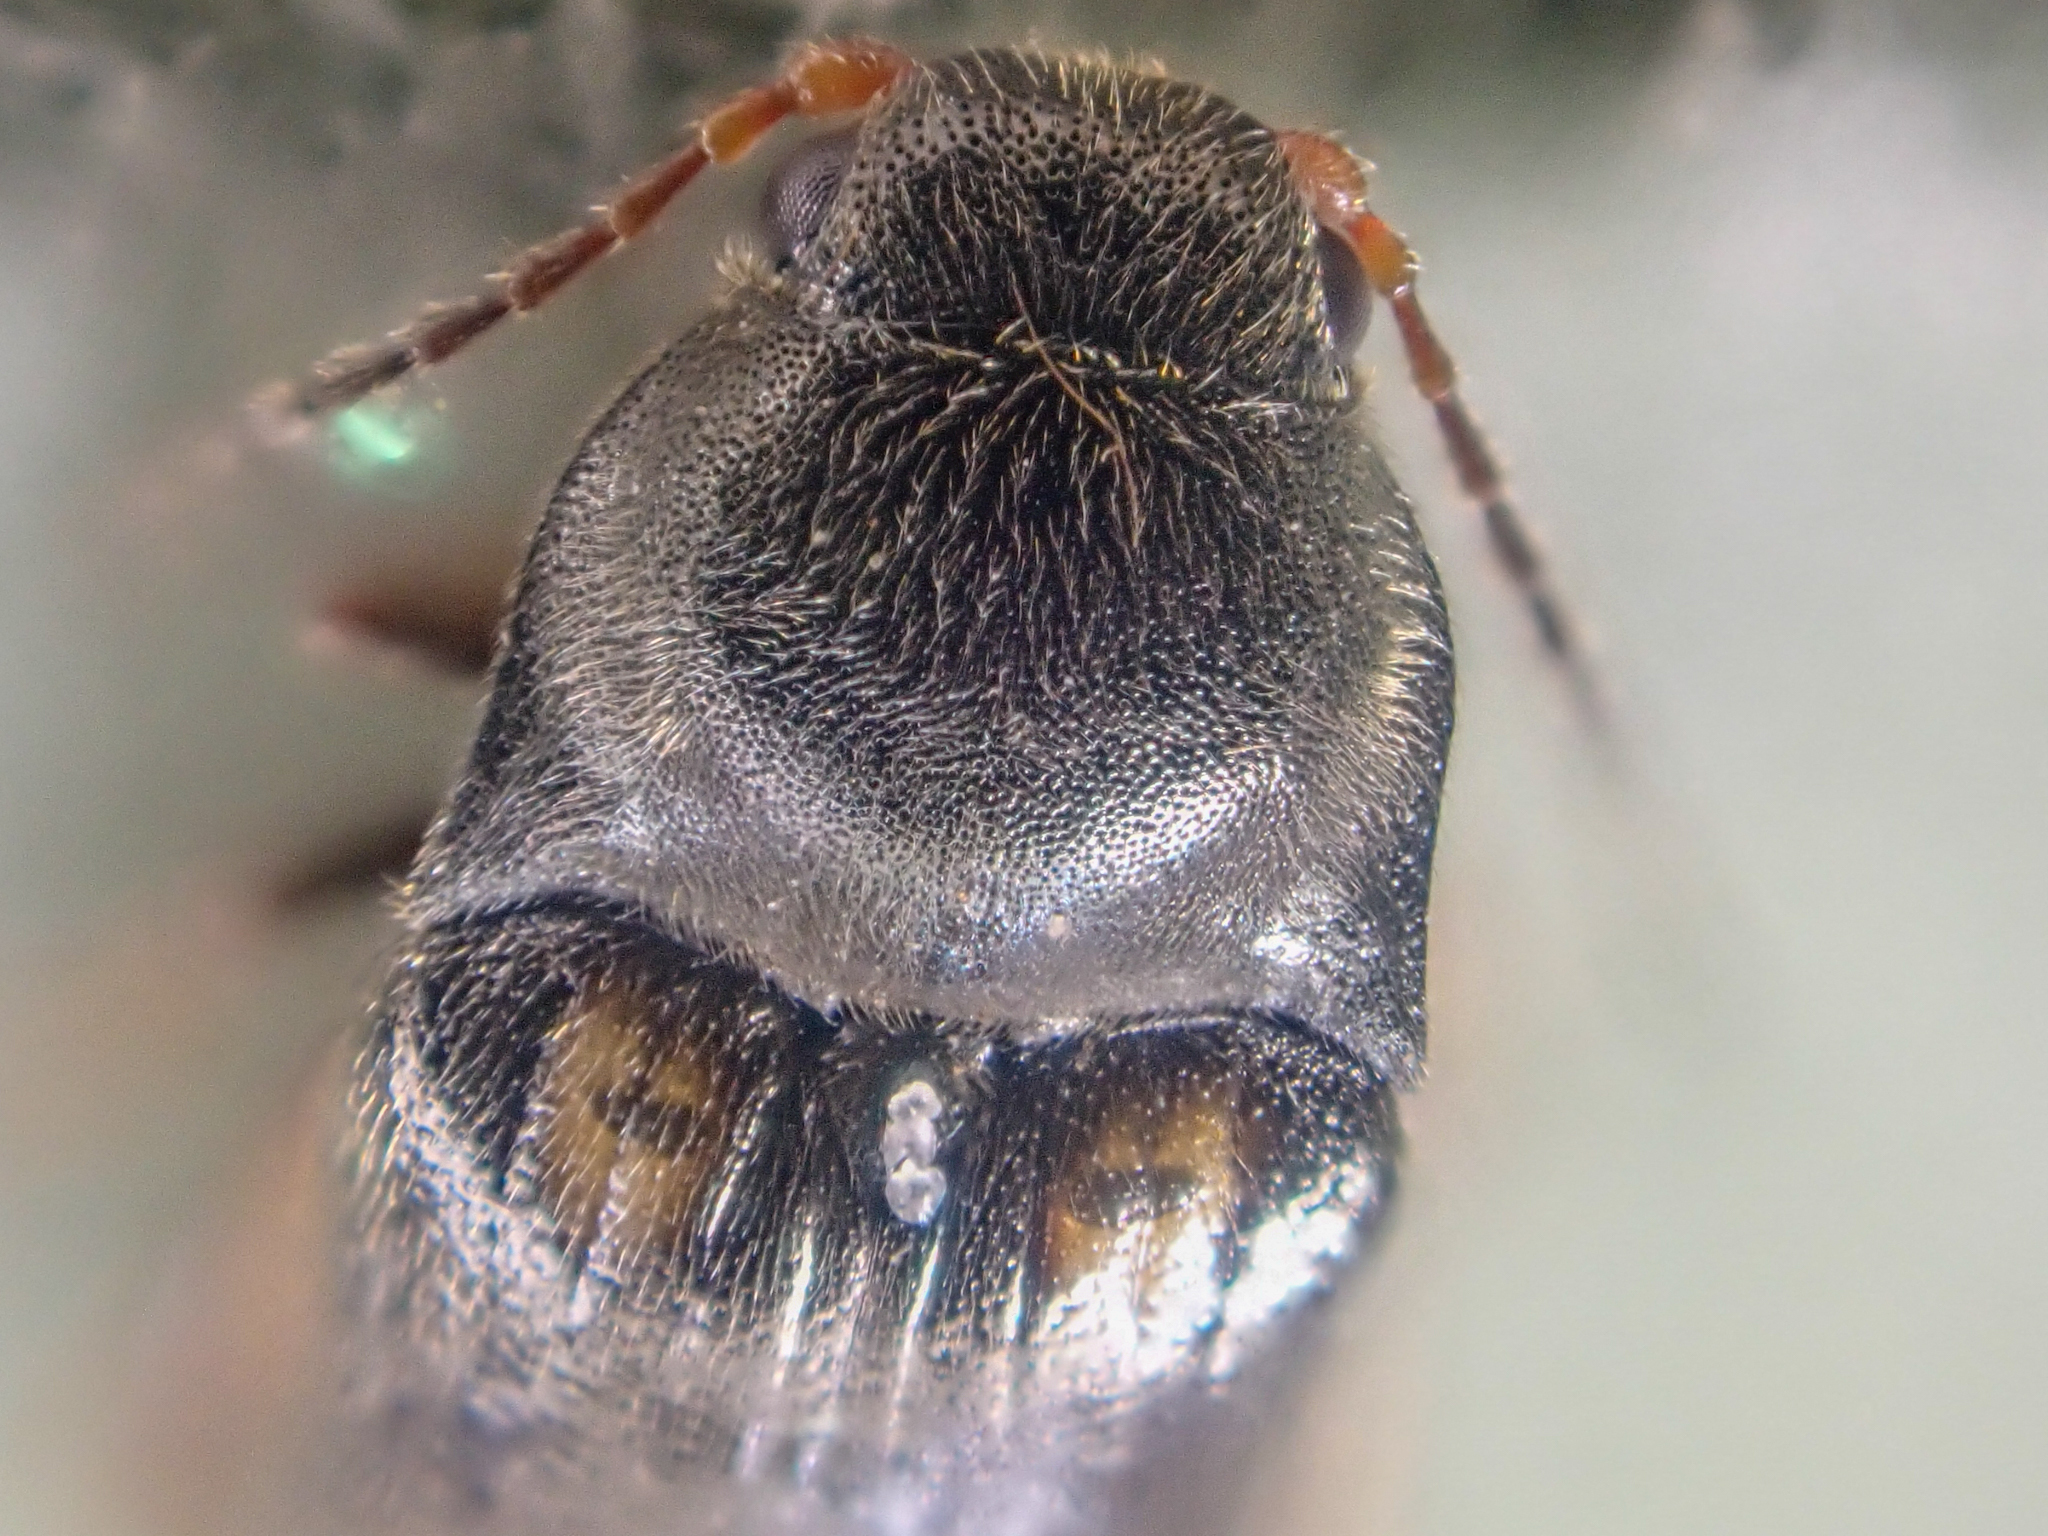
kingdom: Animalia
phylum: Arthropoda
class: Insecta
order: Coleoptera
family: Elateridae
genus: Eanus
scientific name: Eanus granicollis
